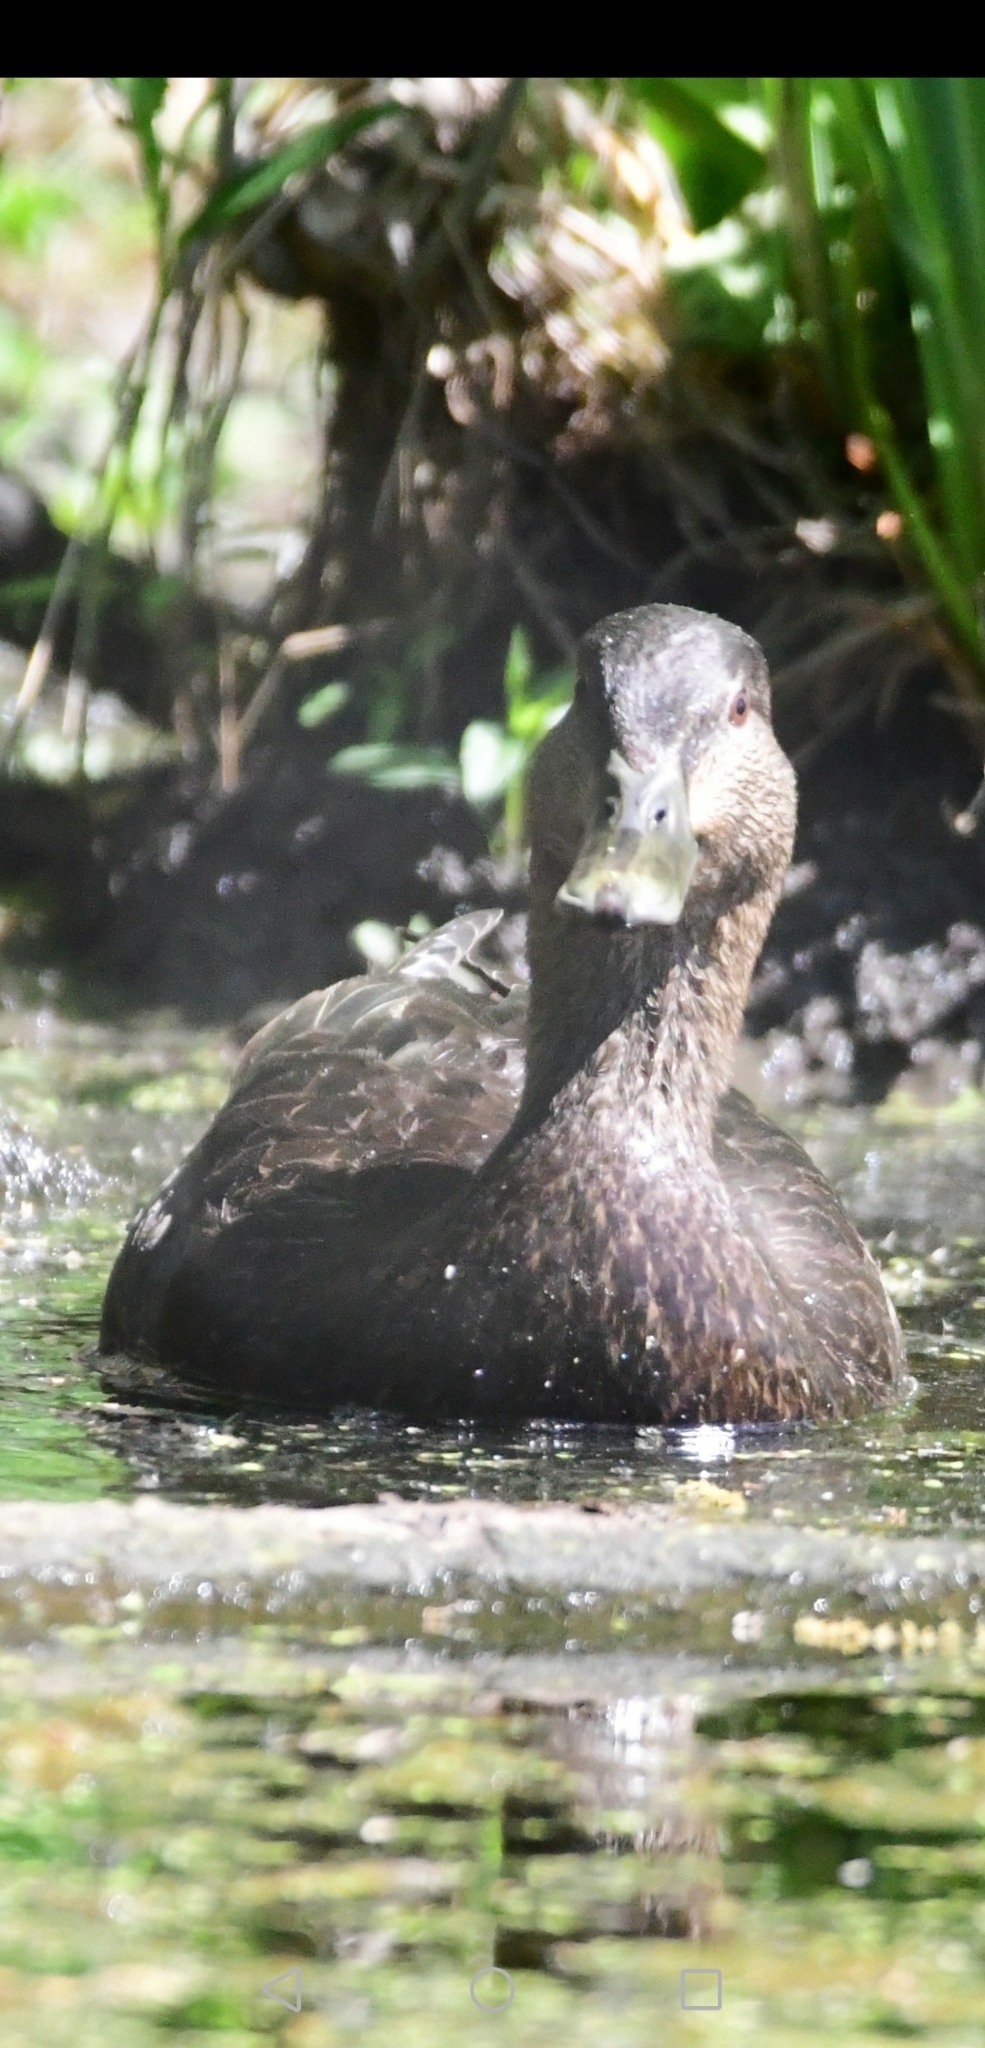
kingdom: Animalia
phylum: Chordata
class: Aves
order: Anseriformes
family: Anatidae
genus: Anas
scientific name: Anas rubripes
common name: American black duck
